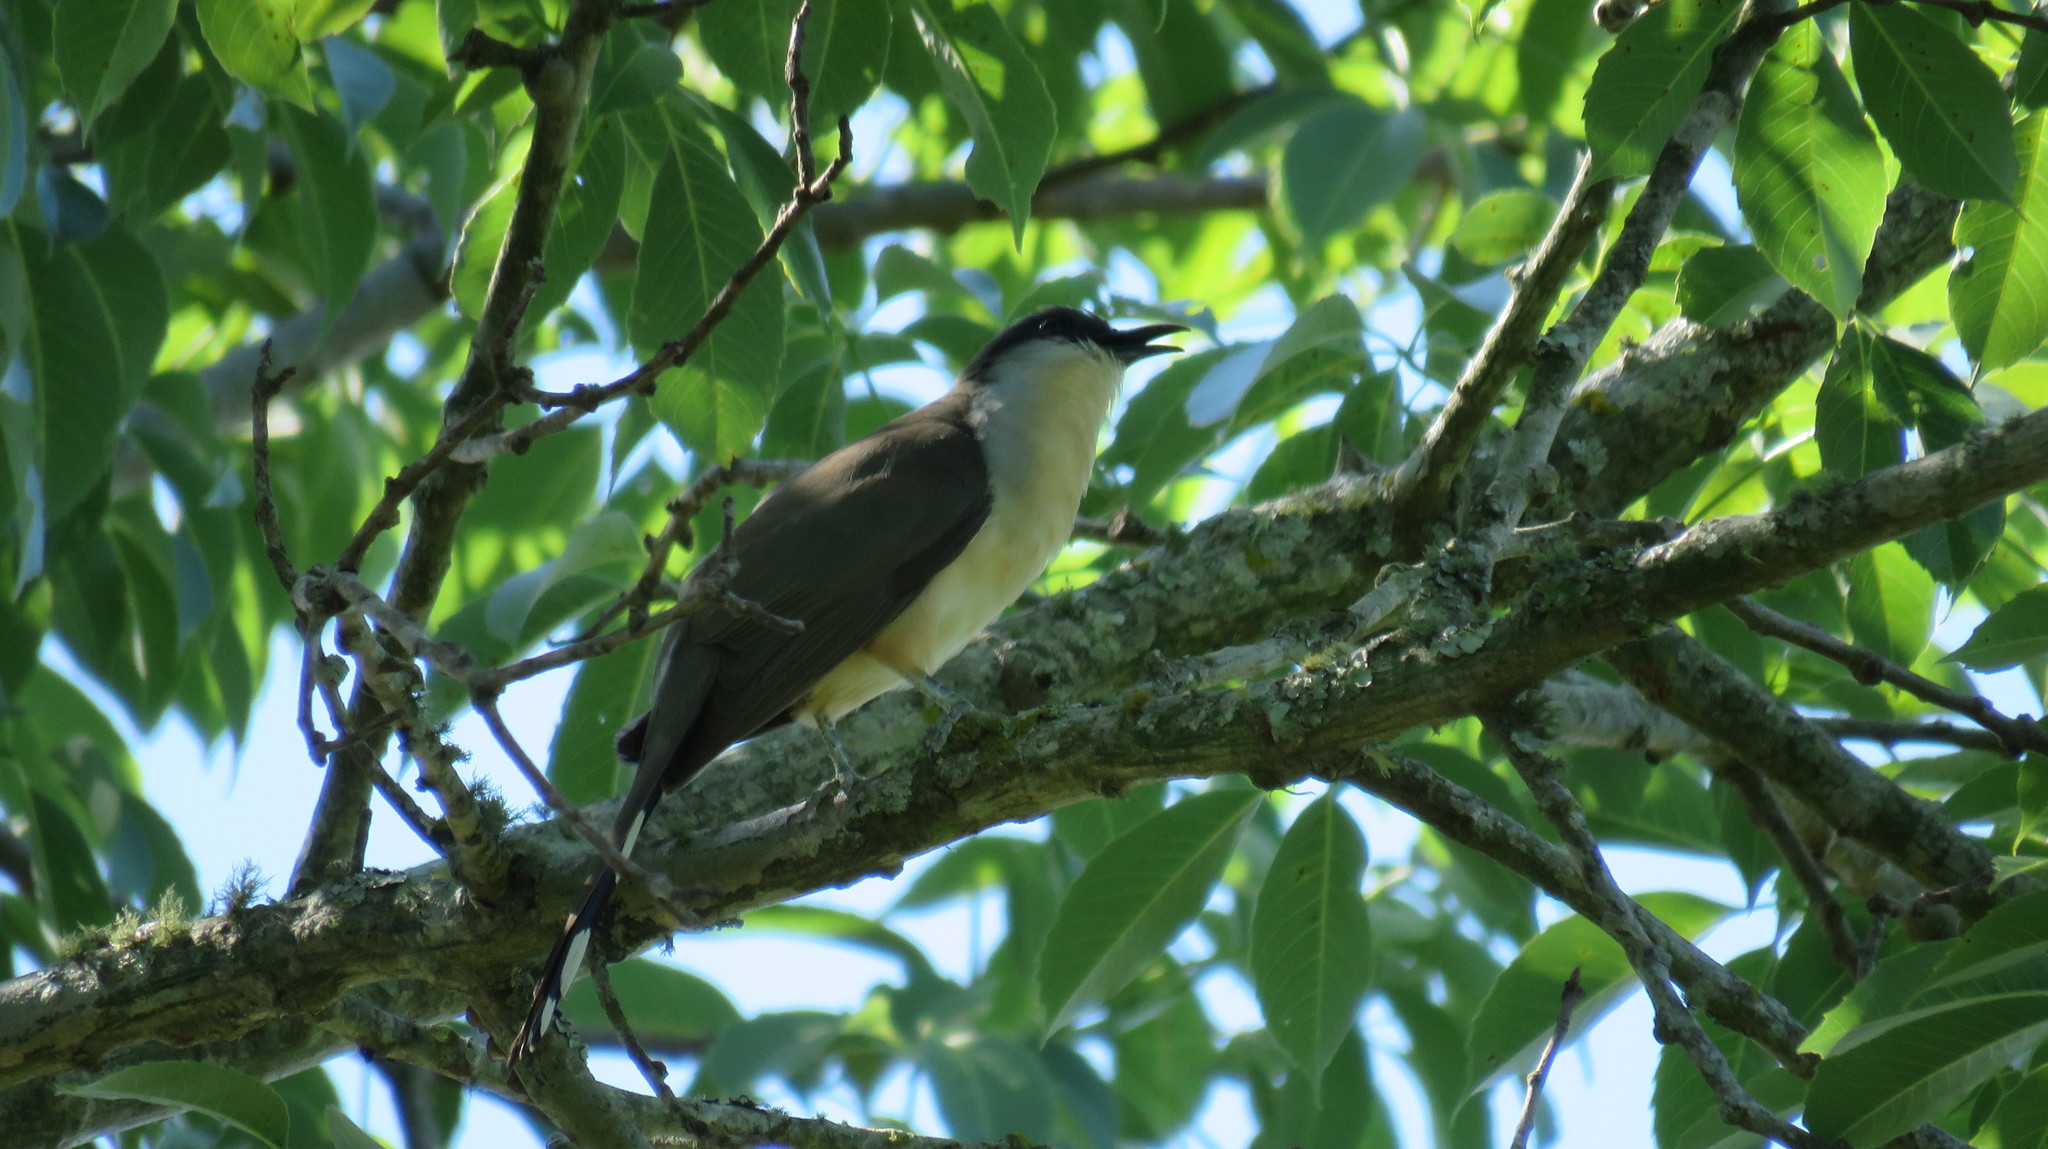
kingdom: Animalia
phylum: Chordata
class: Aves
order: Cuculiformes
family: Cuculidae
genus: Coccyzus
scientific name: Coccyzus melacoryphus
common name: Dark-billed cuckoo
